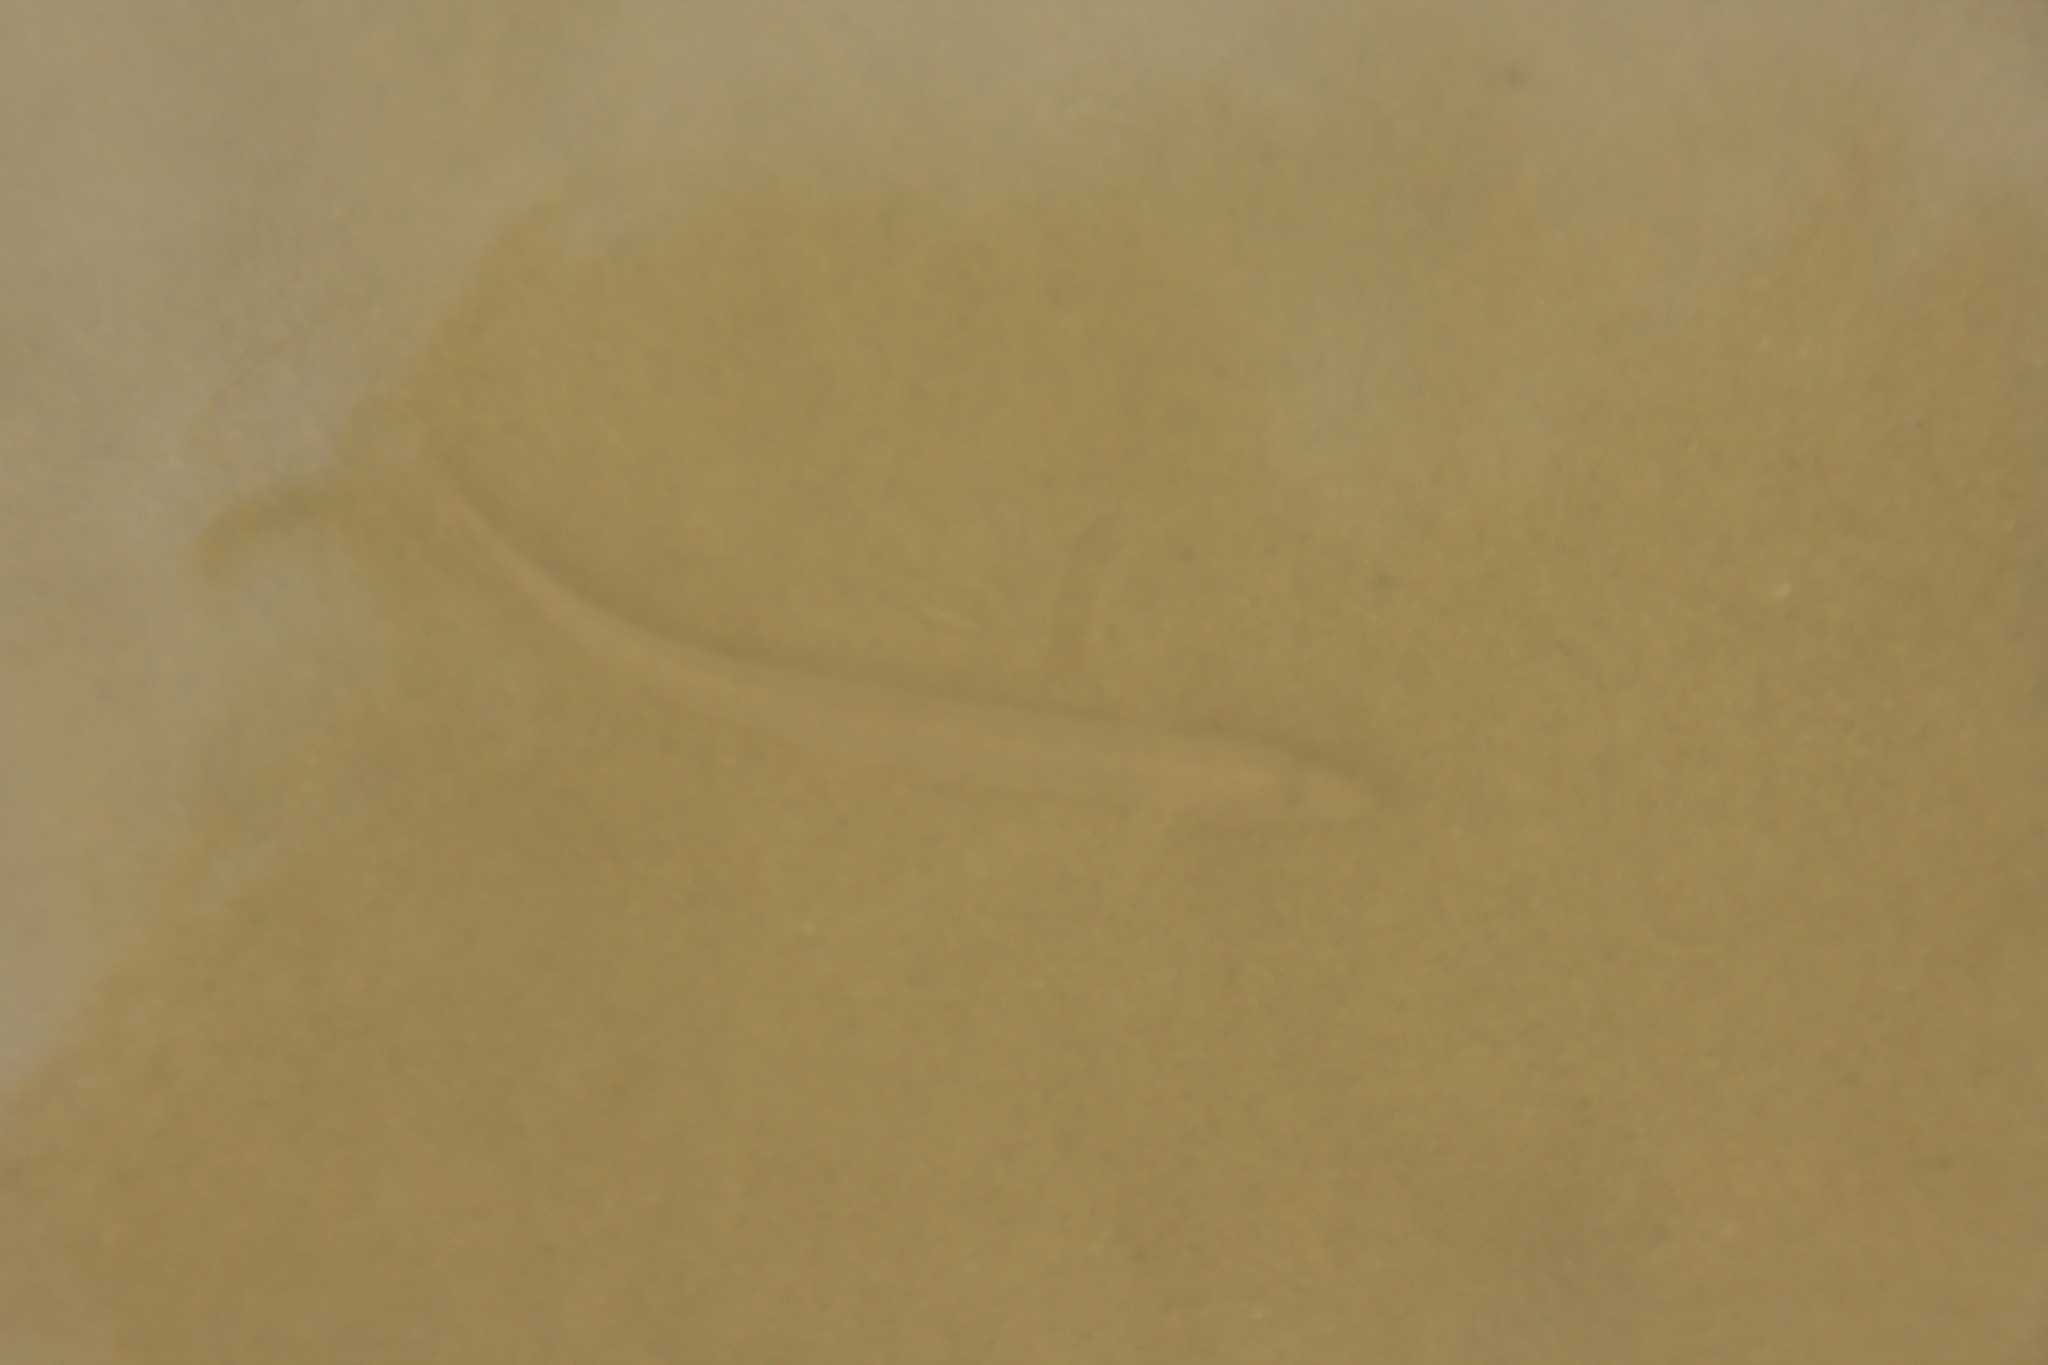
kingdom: Animalia
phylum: Chordata
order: Cypriniformes
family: Cobitidae
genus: Cobitis
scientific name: Cobitis taenia
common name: Spined loach
